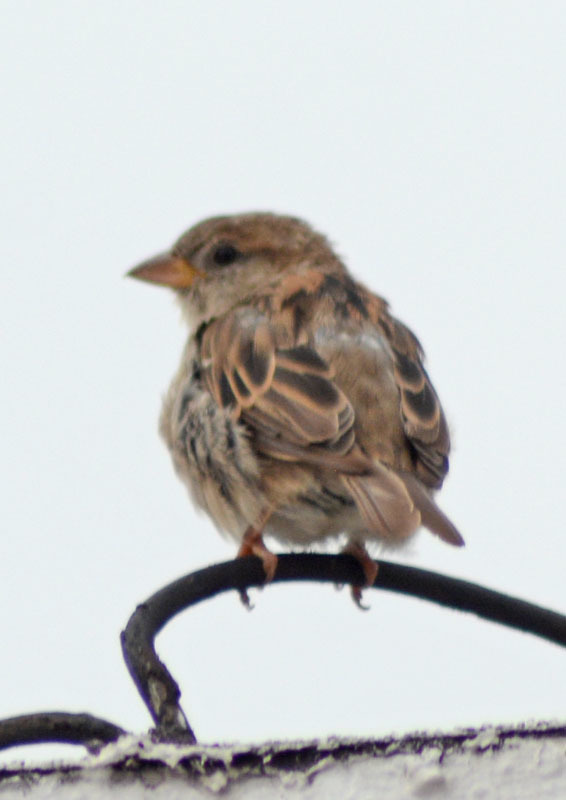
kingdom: Animalia
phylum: Chordata
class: Aves
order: Passeriformes
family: Passeridae
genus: Passer
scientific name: Passer domesticus
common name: House sparrow
